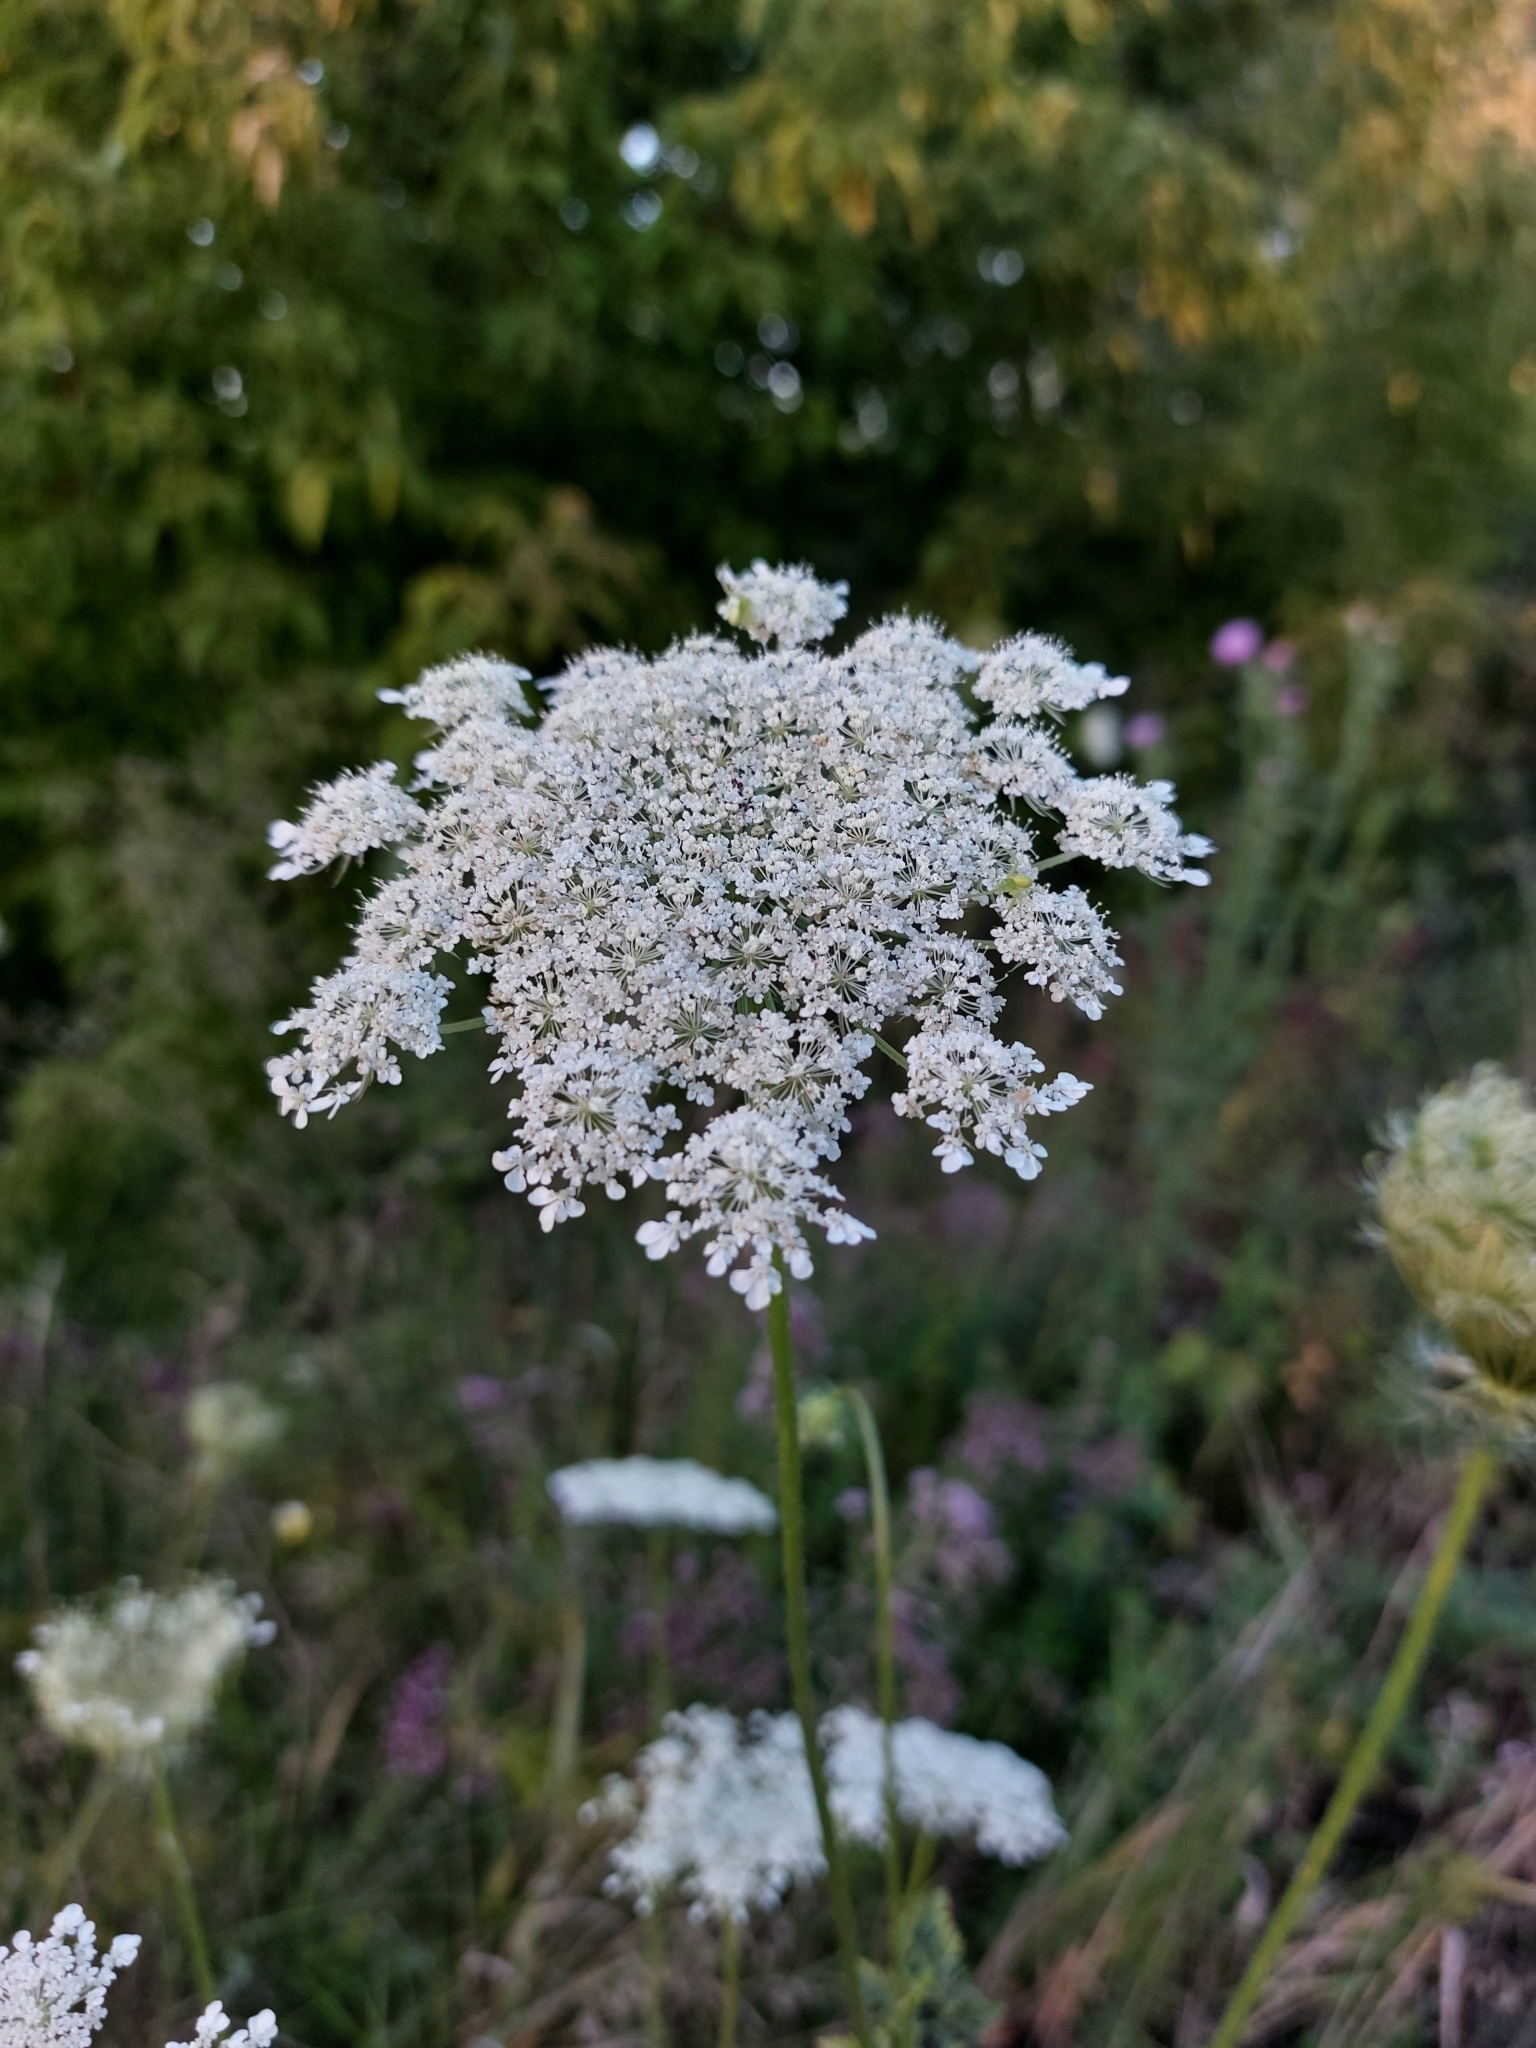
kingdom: Plantae
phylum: Tracheophyta
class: Magnoliopsida
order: Apiales
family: Apiaceae
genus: Daucus
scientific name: Daucus carota
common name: Wild carrot
